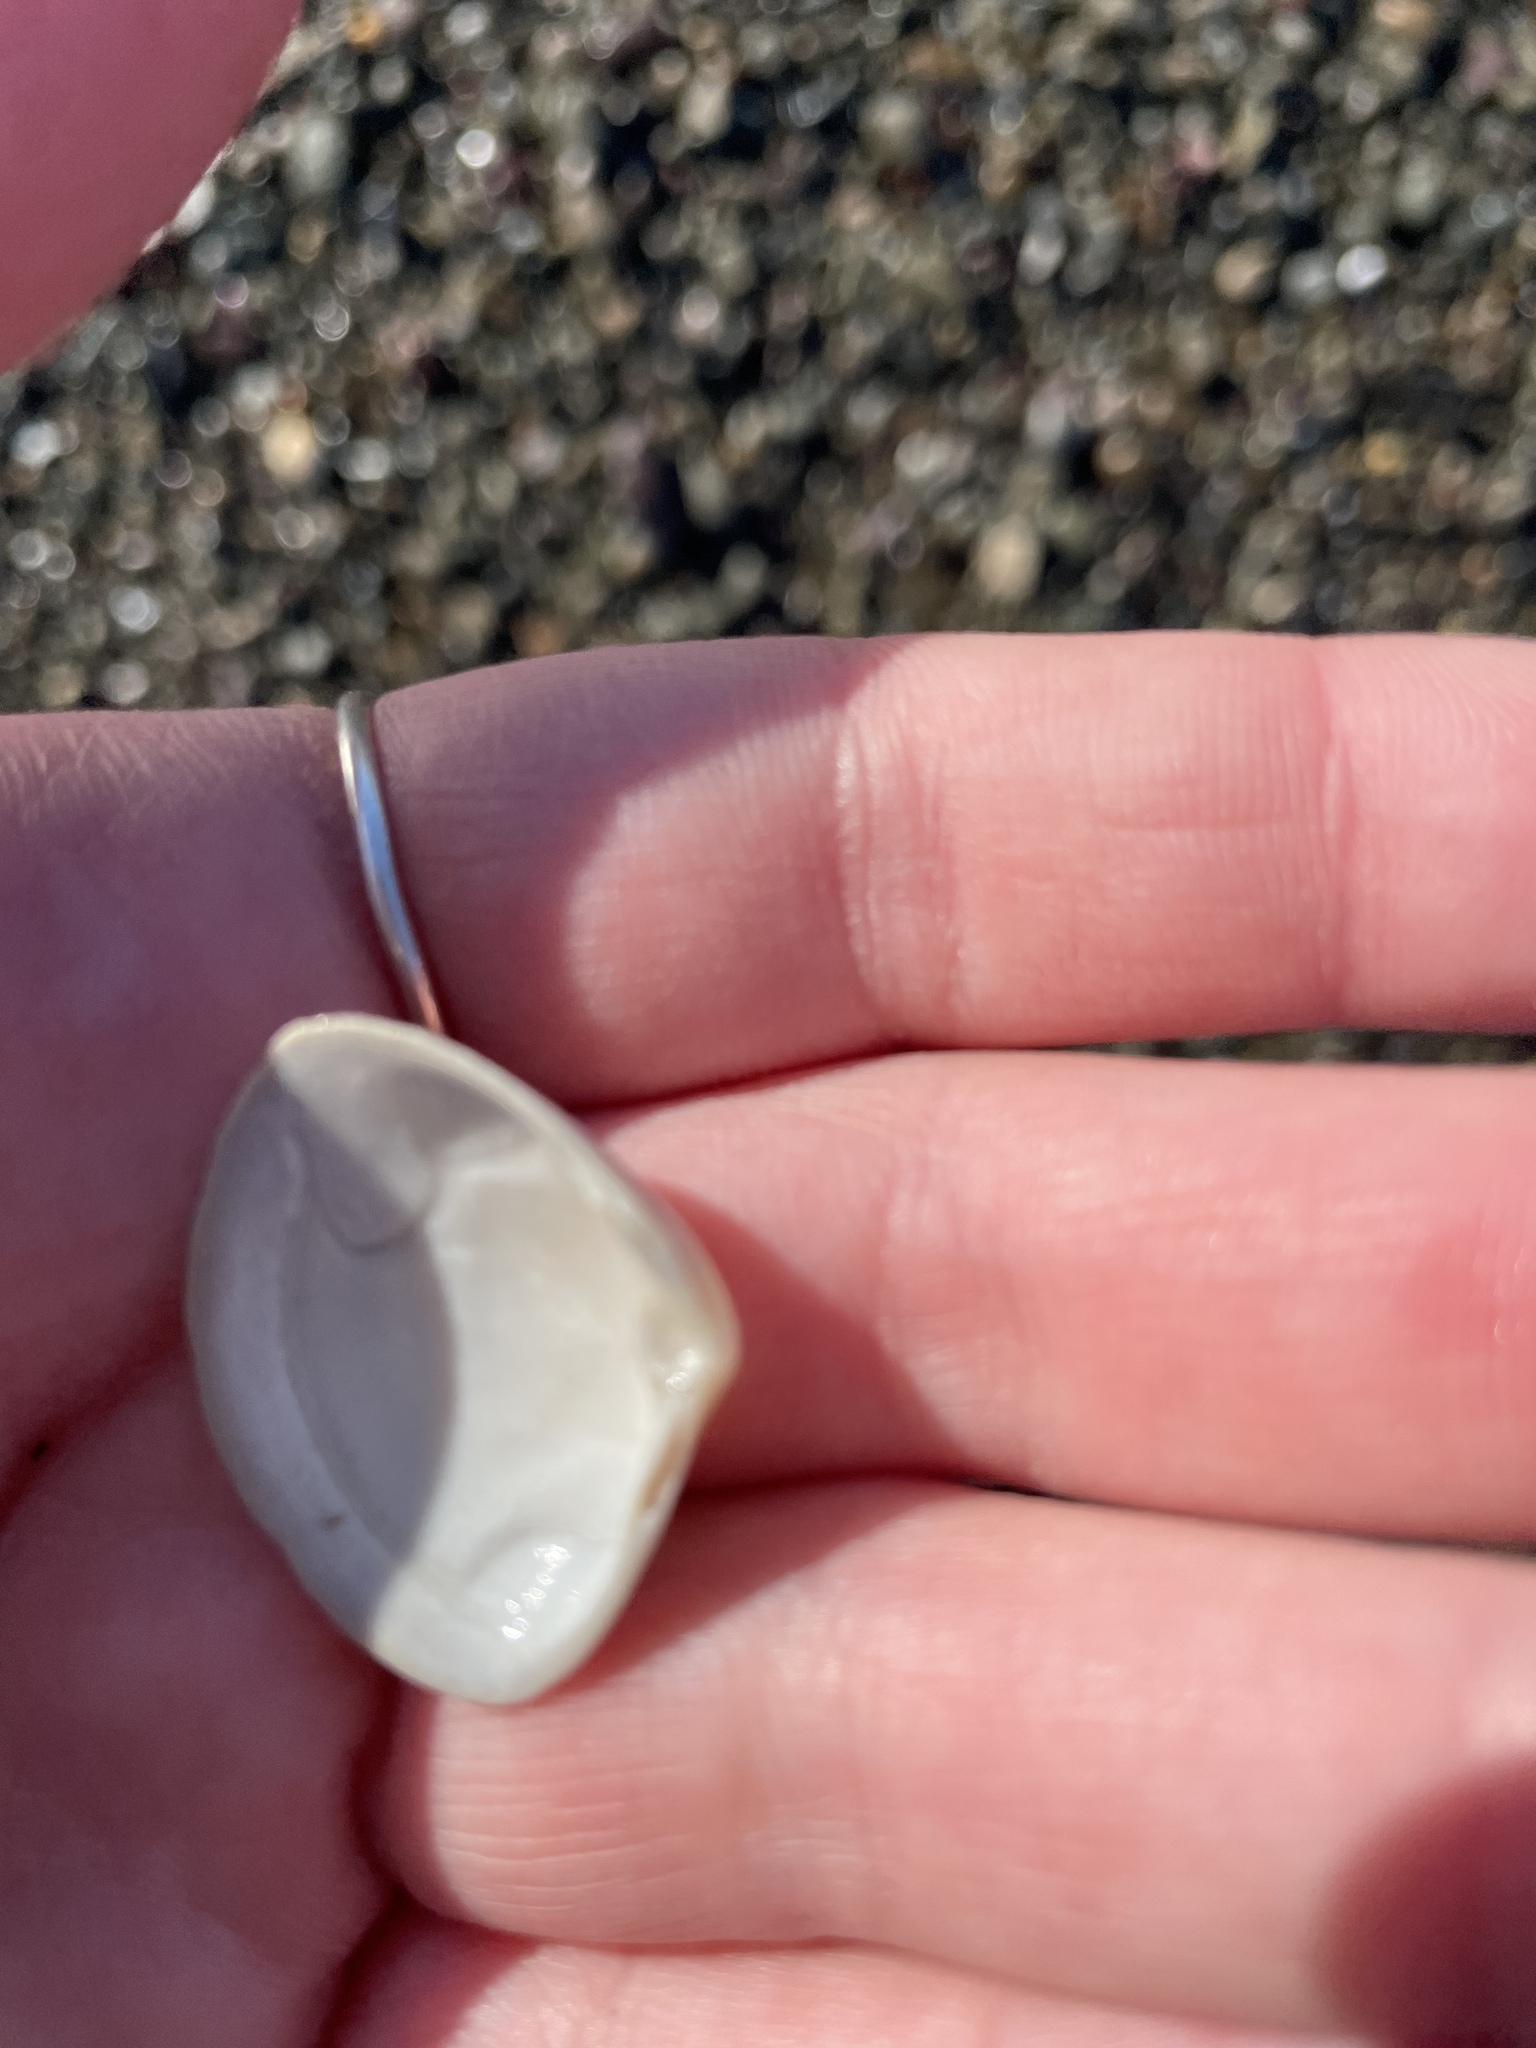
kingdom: Animalia
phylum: Mollusca
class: Bivalvia
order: Venerida
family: Mactridae
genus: Spisula
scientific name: Spisula solidissima
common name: Atlantic surf clam
